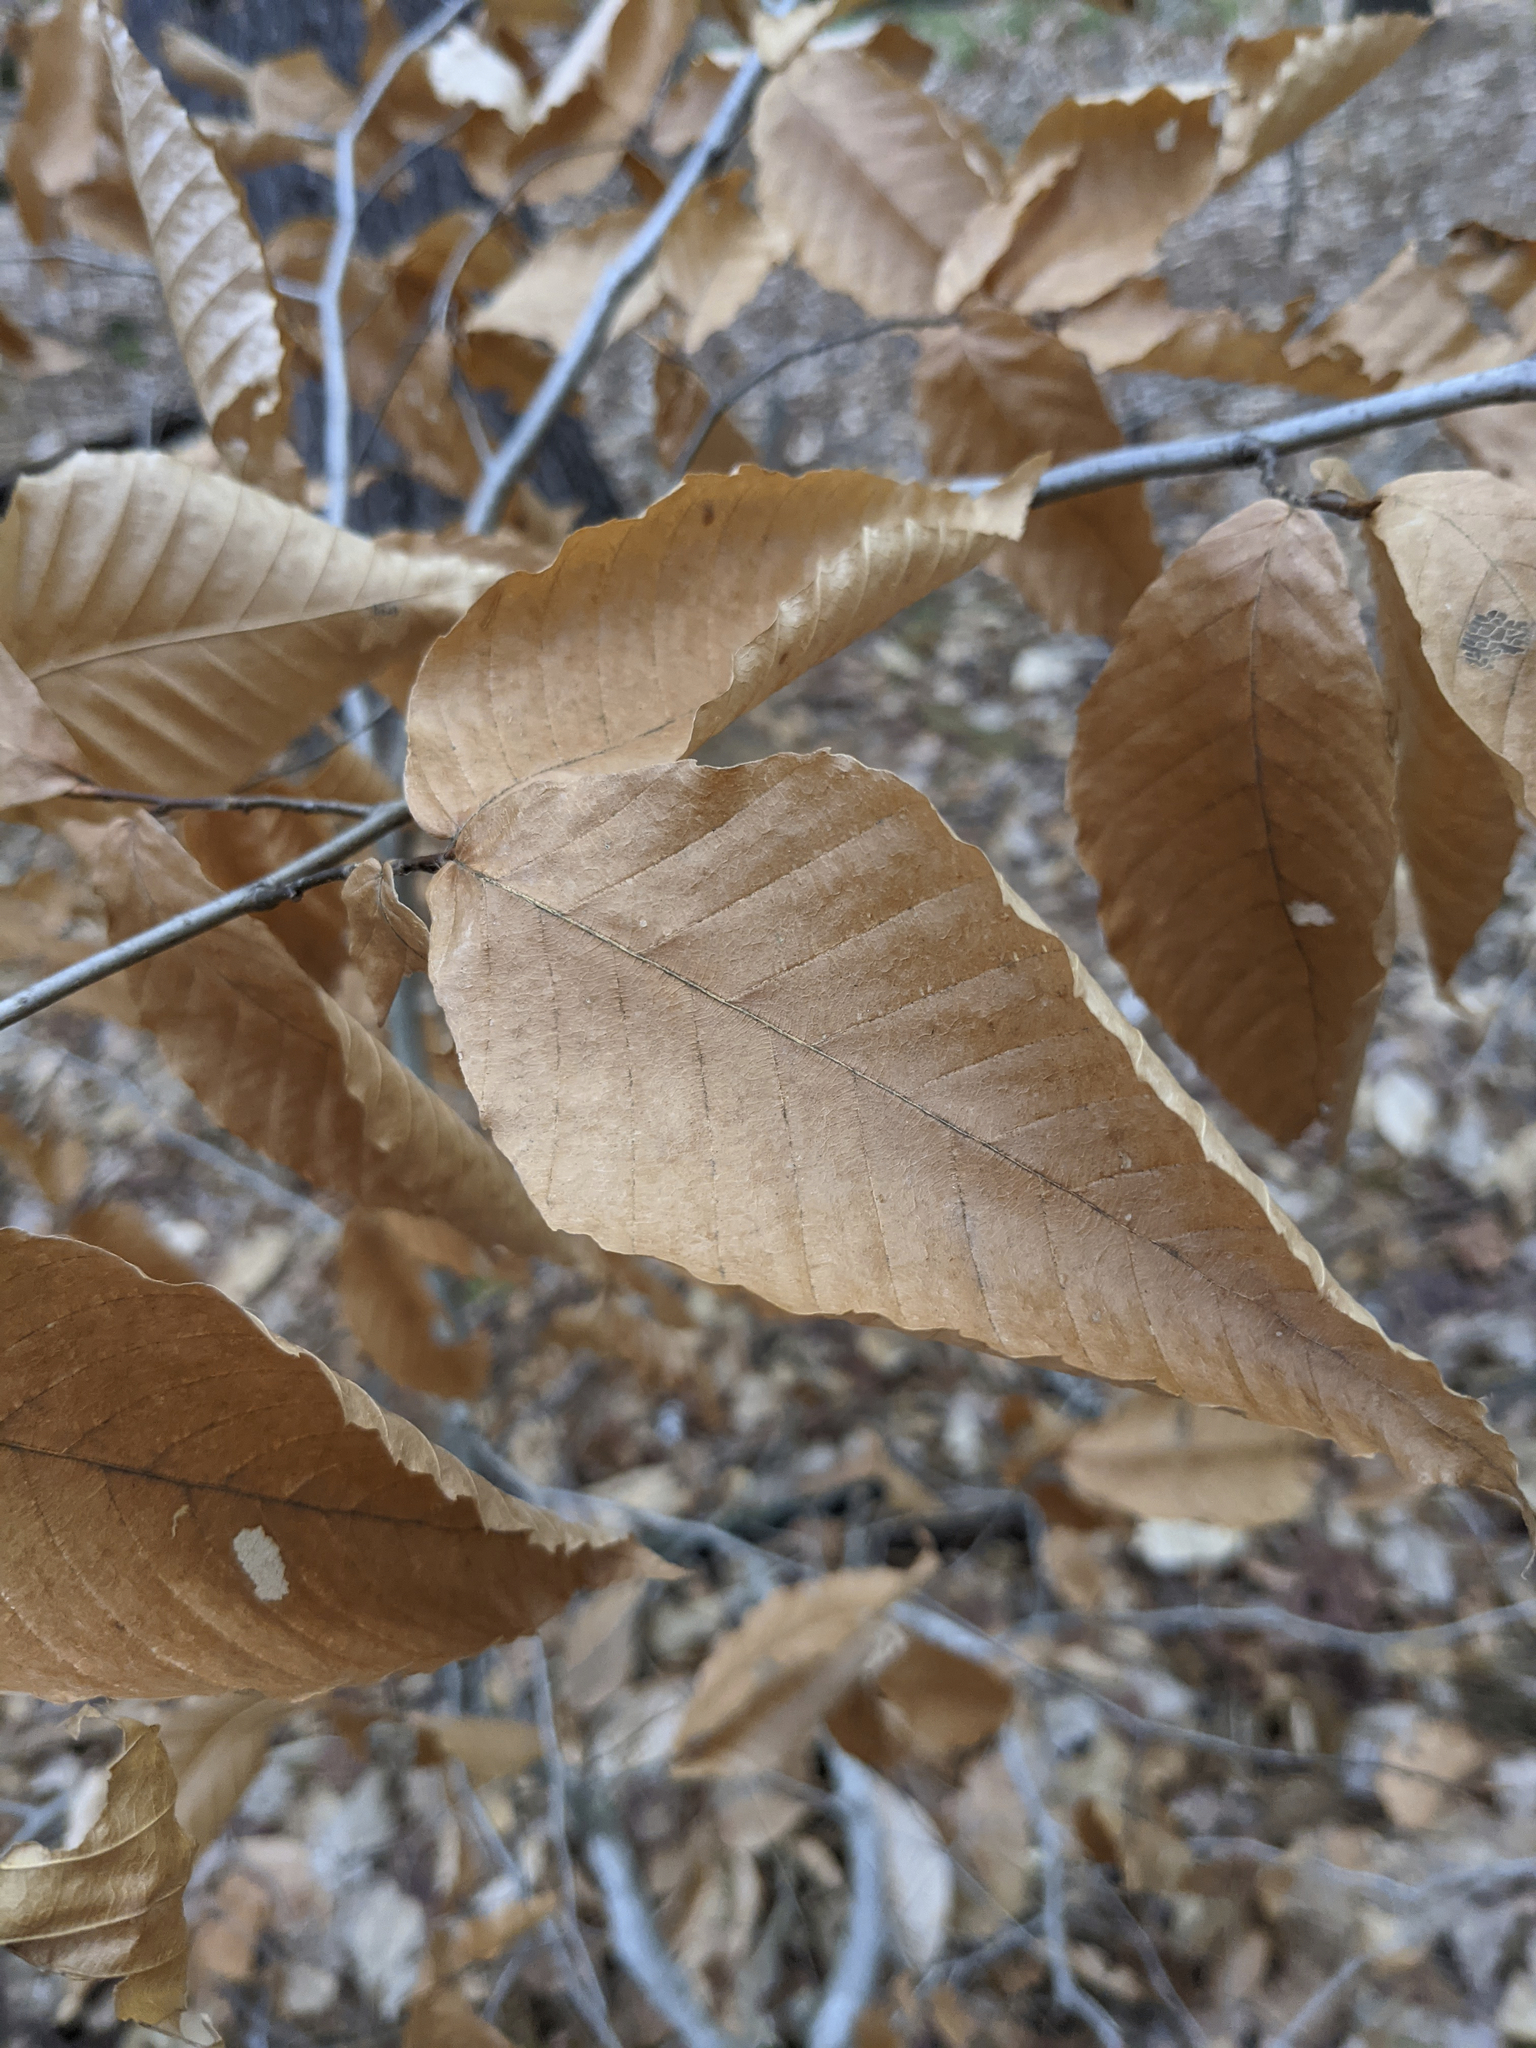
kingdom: Plantae
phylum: Tracheophyta
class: Magnoliopsida
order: Fagales
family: Fagaceae
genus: Fagus
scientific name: Fagus grandifolia
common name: American beech
